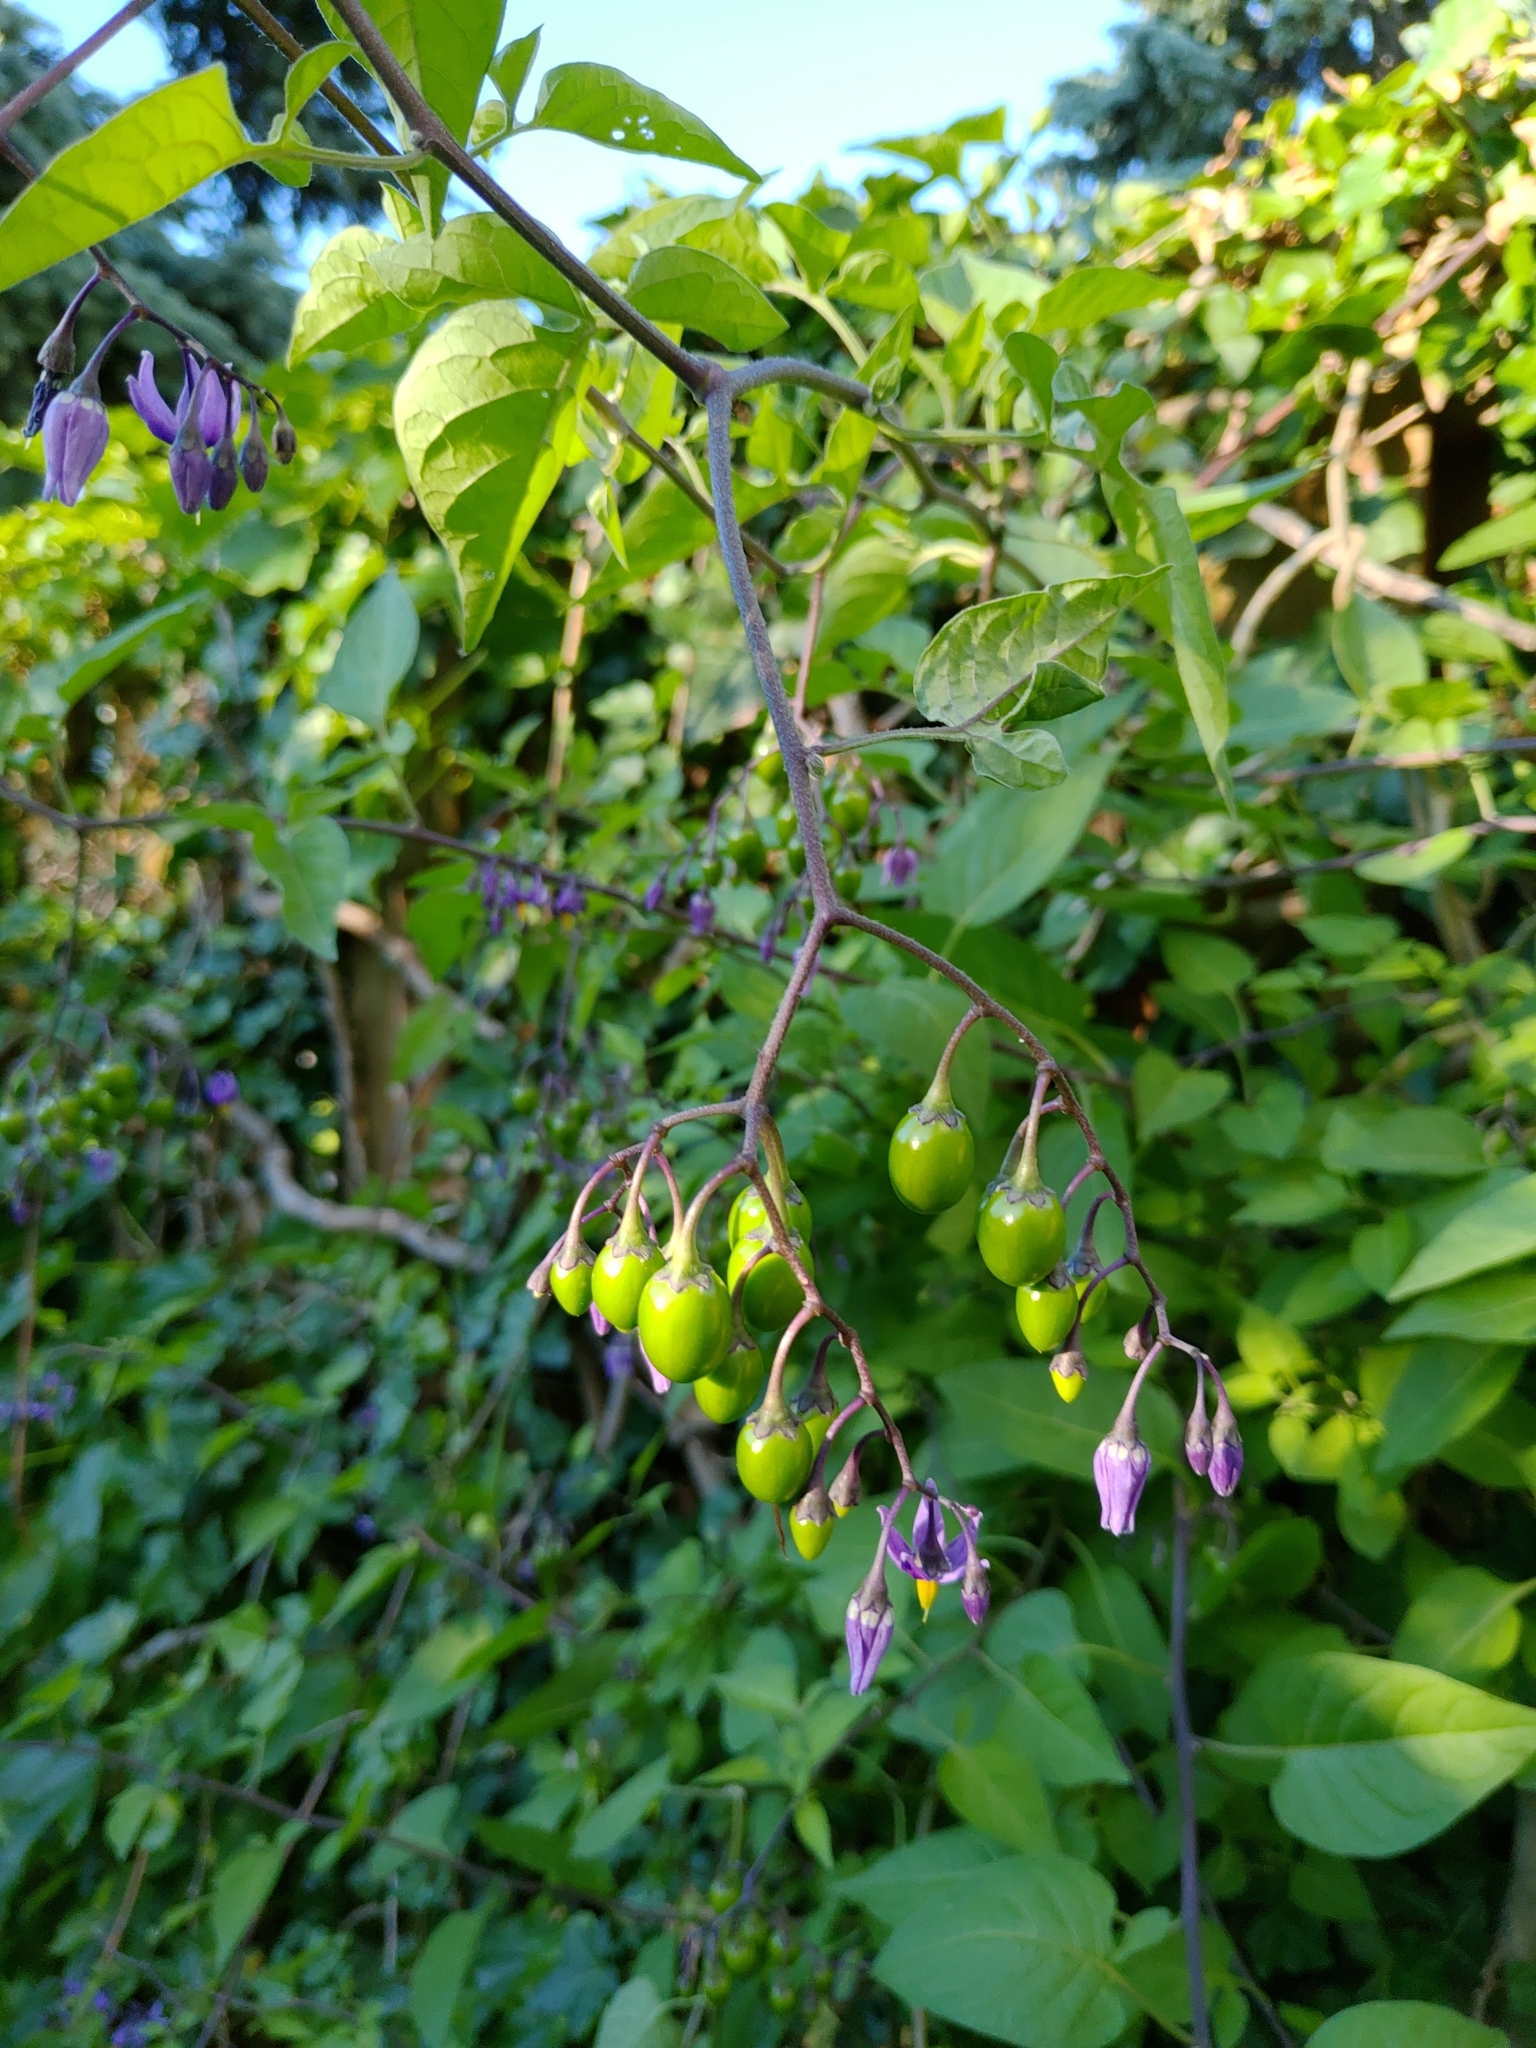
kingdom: Plantae
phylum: Tracheophyta
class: Magnoliopsida
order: Solanales
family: Solanaceae
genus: Solanum
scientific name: Solanum dulcamara
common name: Climbing nightshade
